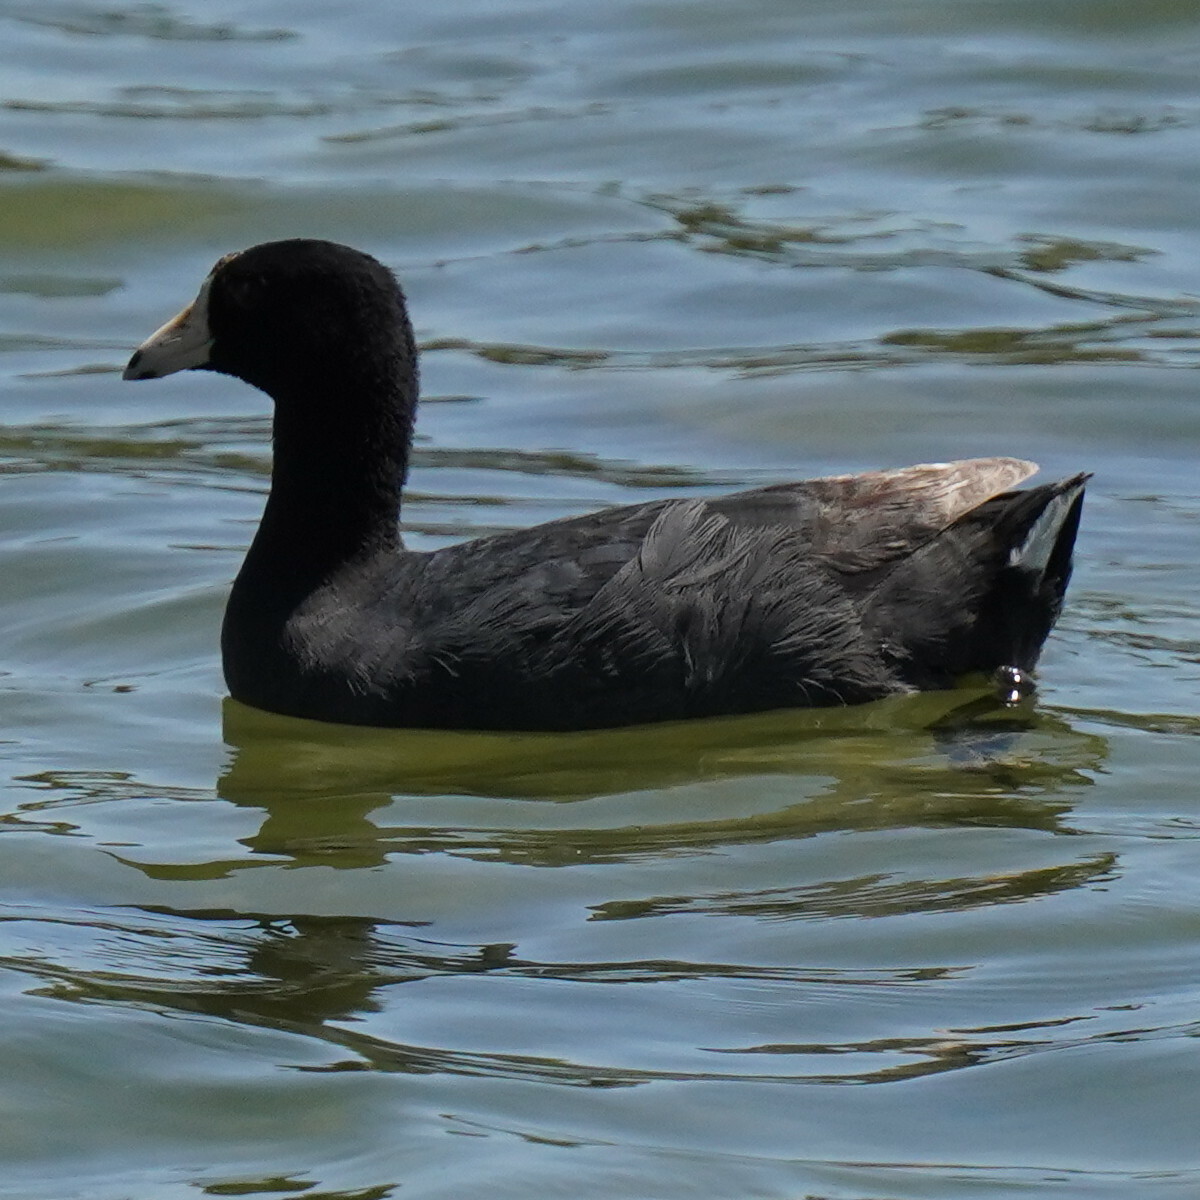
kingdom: Animalia
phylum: Chordata
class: Aves
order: Gruiformes
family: Rallidae
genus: Fulica
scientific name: Fulica americana
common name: American coot
